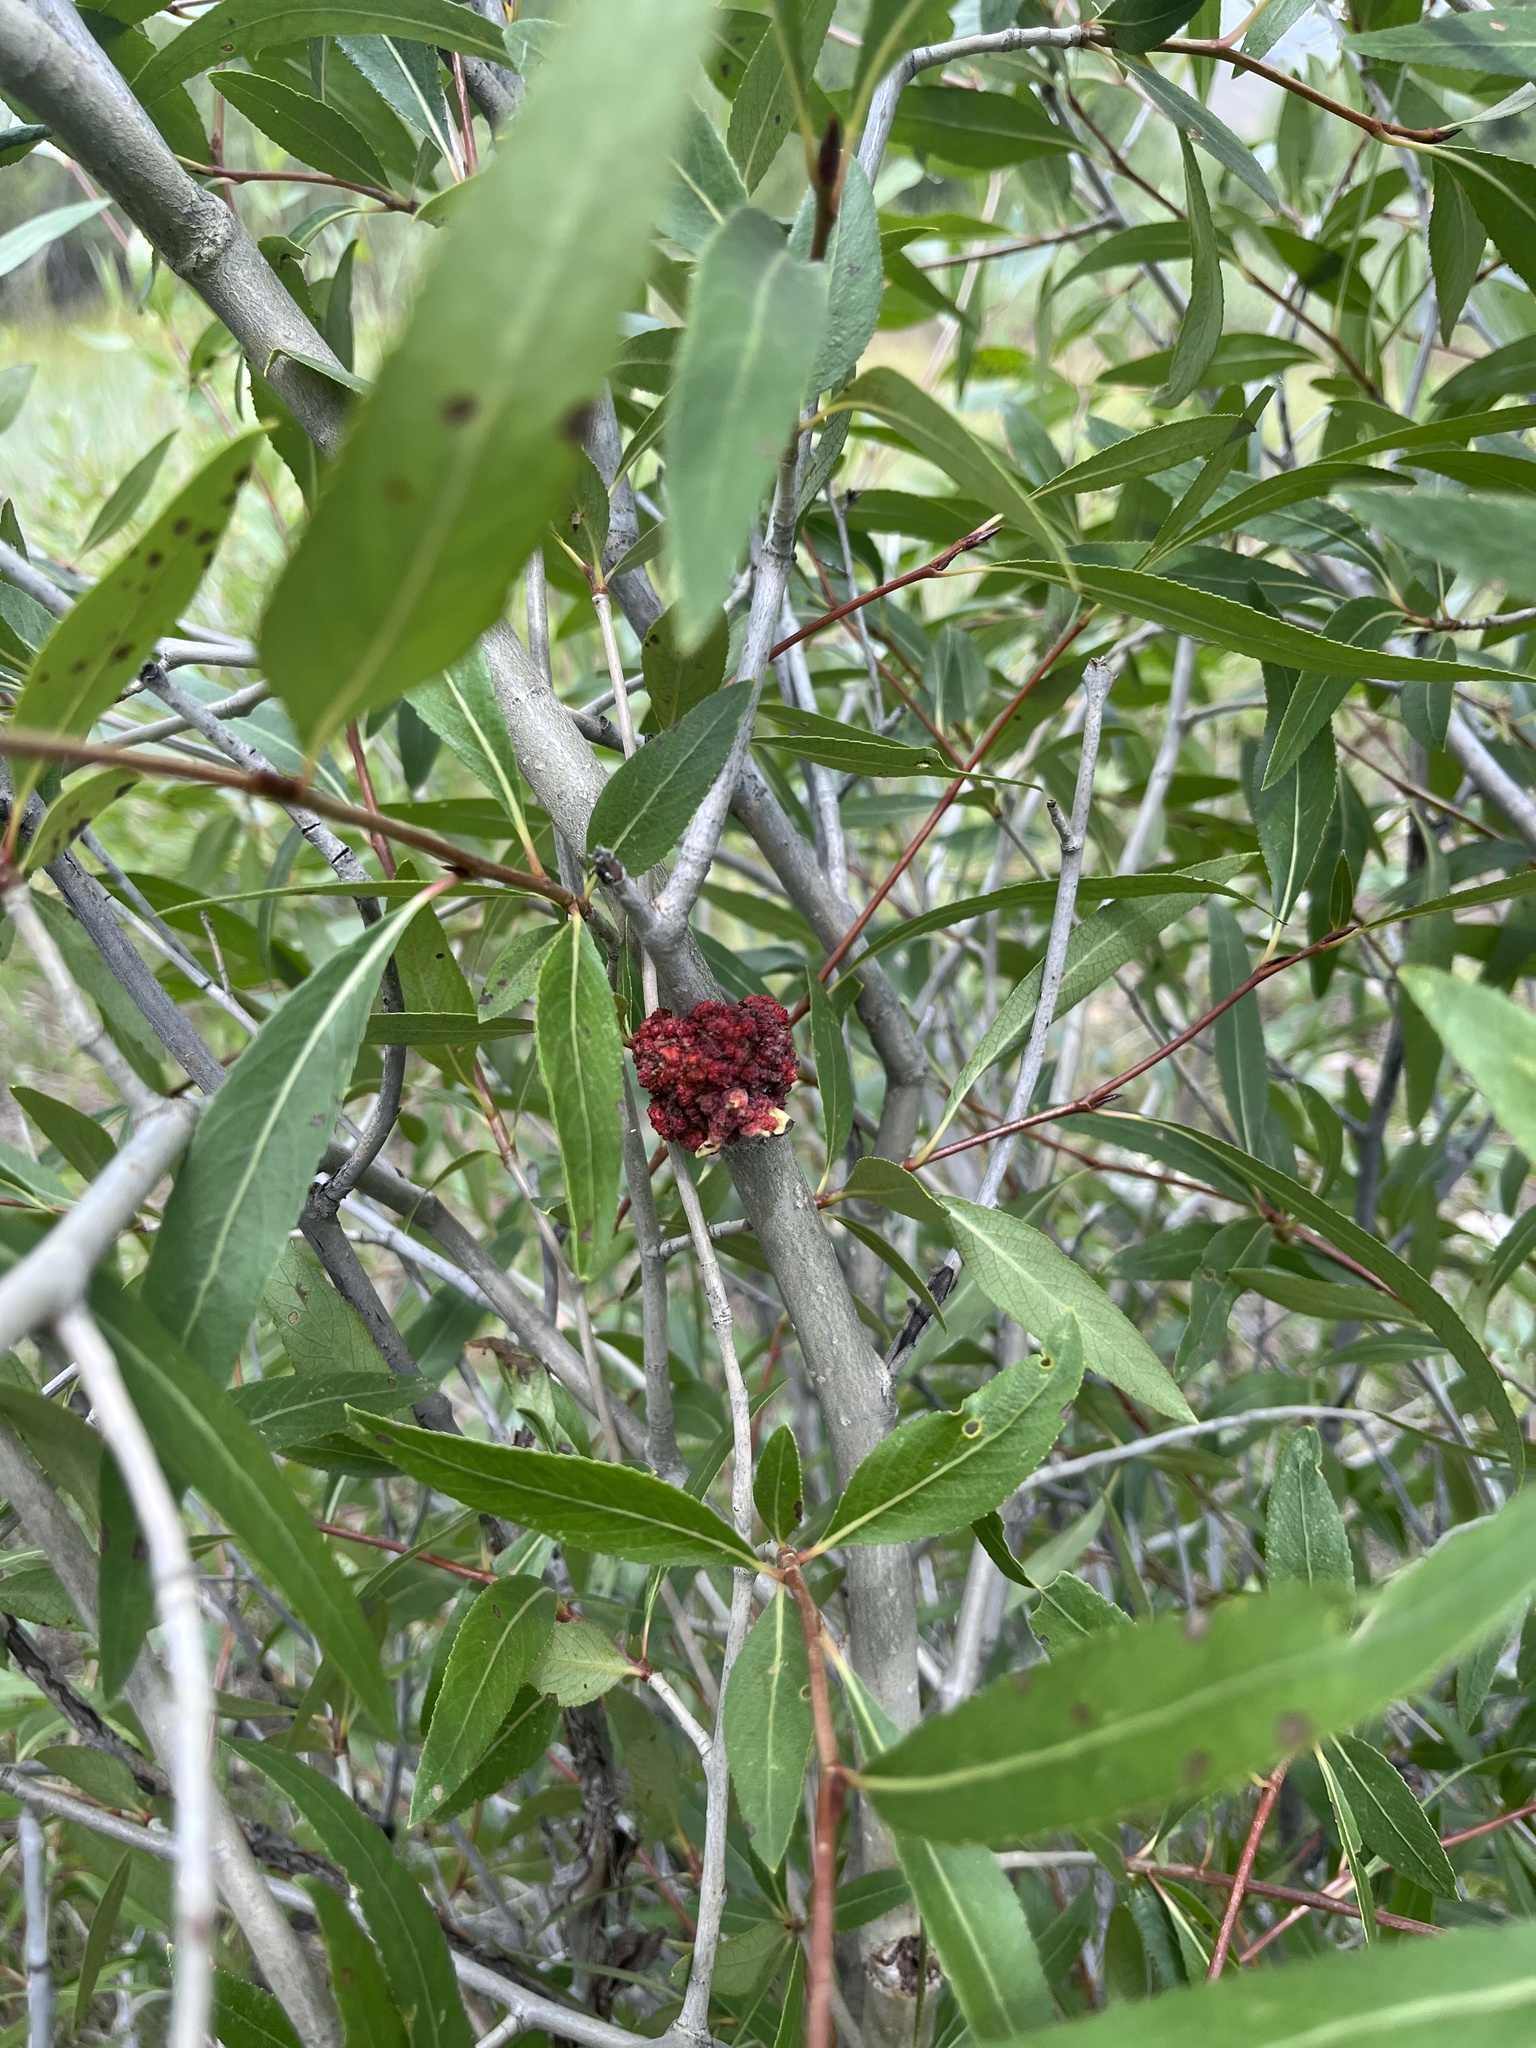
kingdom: Animalia
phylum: Arthropoda
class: Arachnida
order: Trombidiformes
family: Eriophyidae
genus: Aceria
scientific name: Aceria
